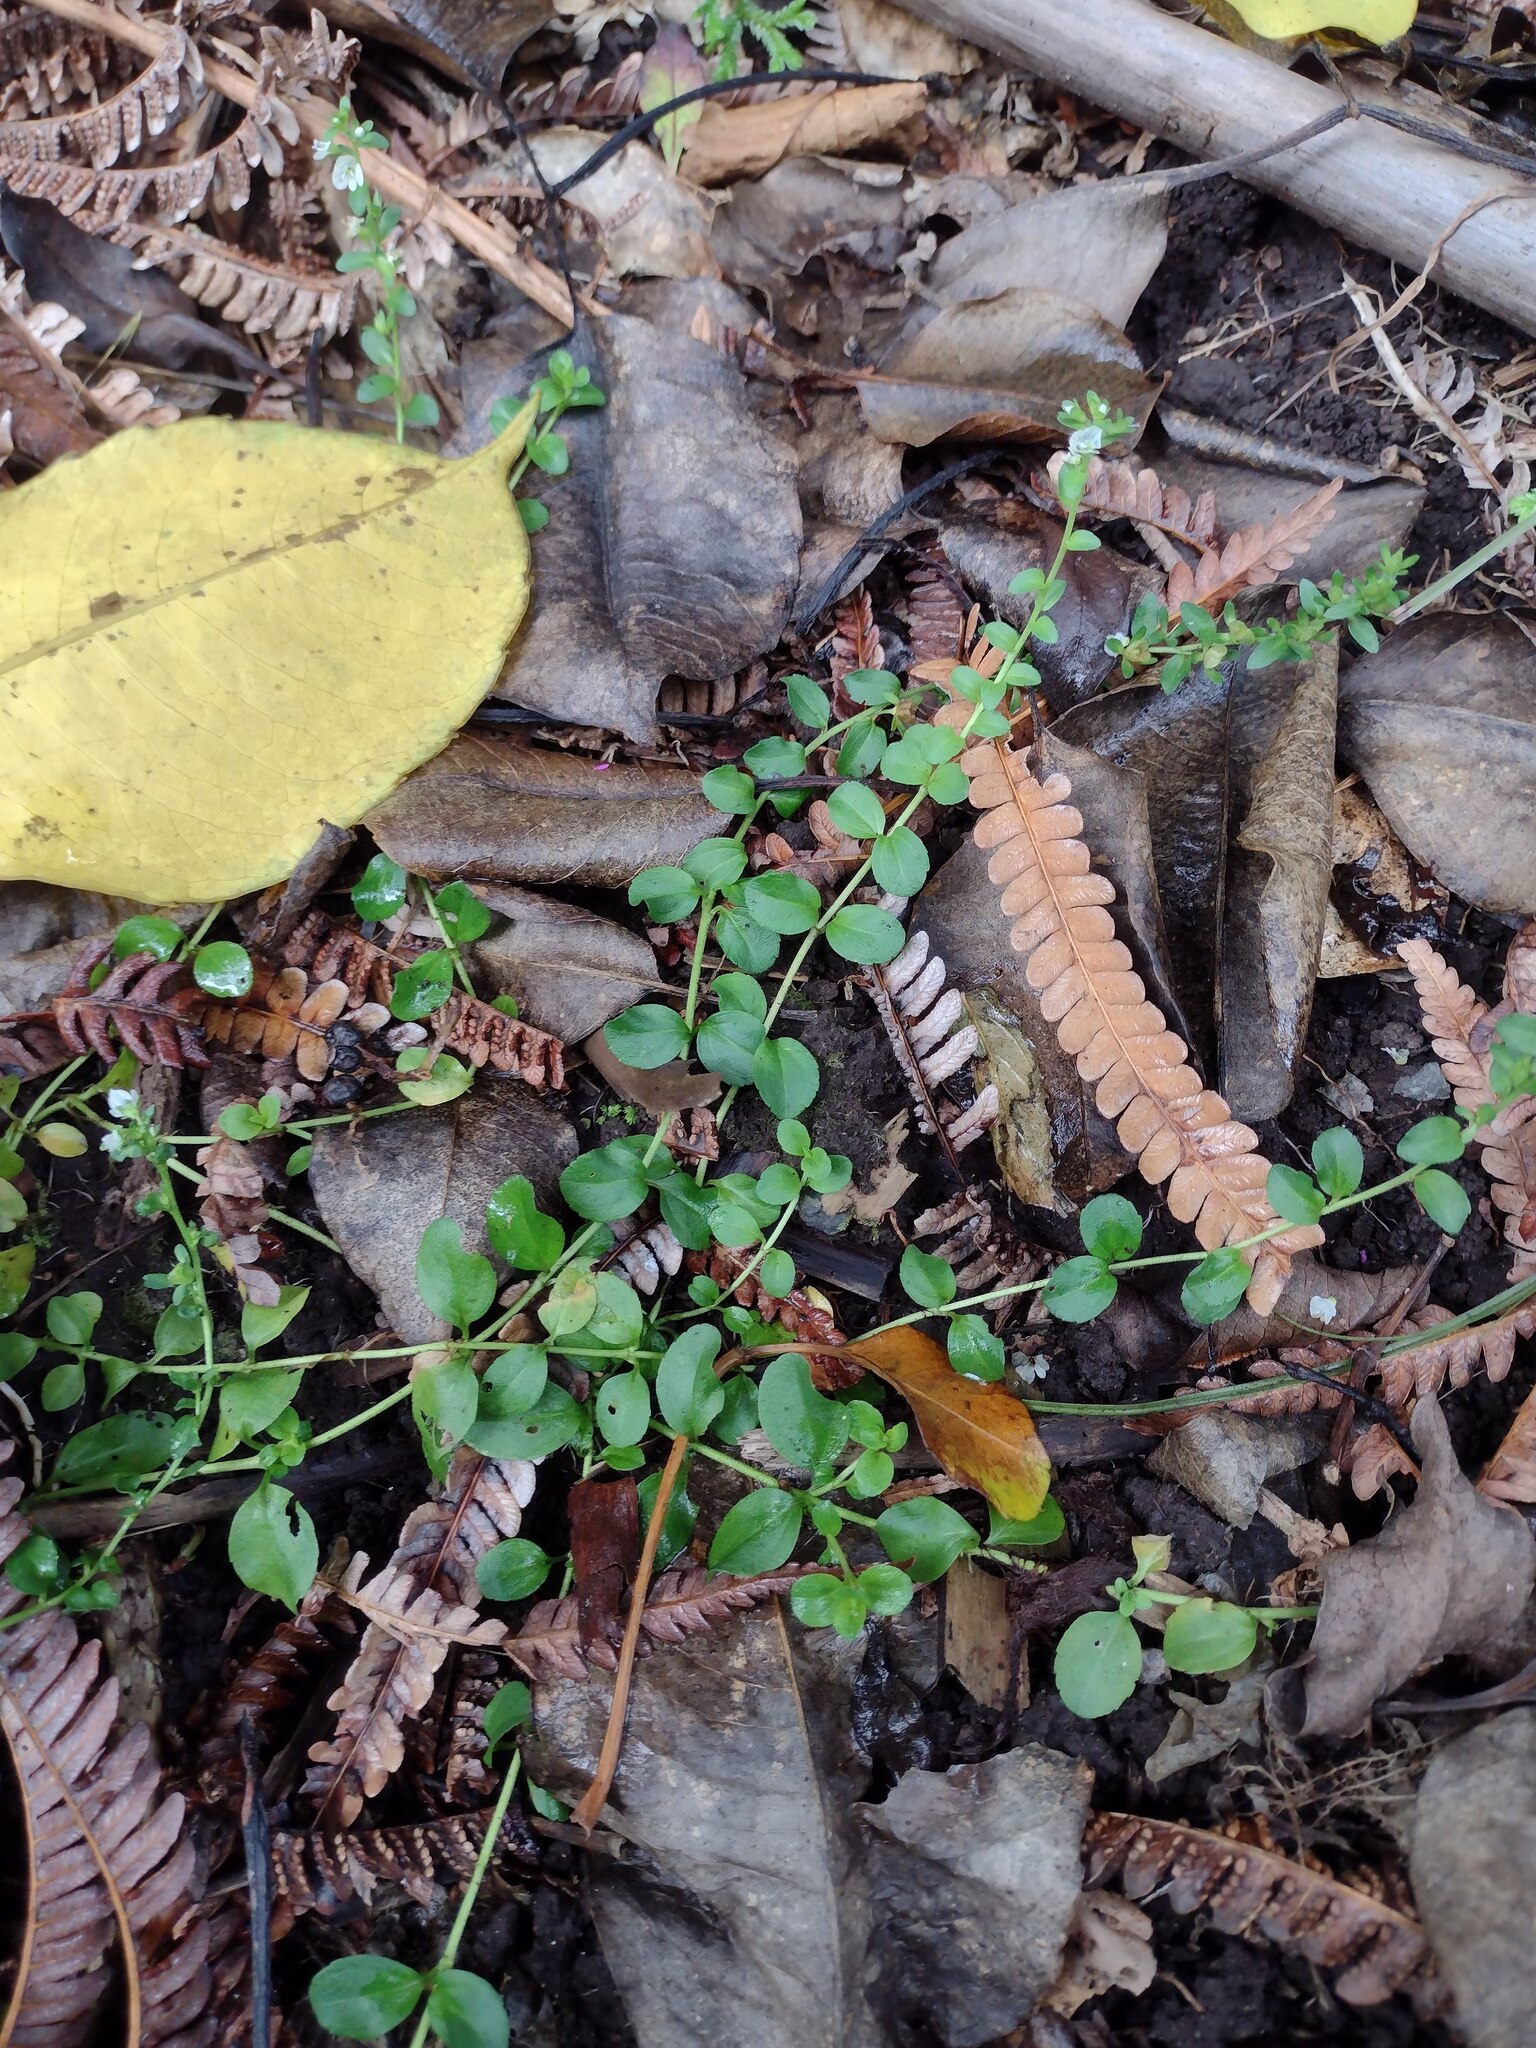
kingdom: Plantae
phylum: Tracheophyta
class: Magnoliopsida
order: Lamiales
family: Plantaginaceae
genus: Veronica
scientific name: Veronica serpyllifolia
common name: Thyme-leaved speedwell
